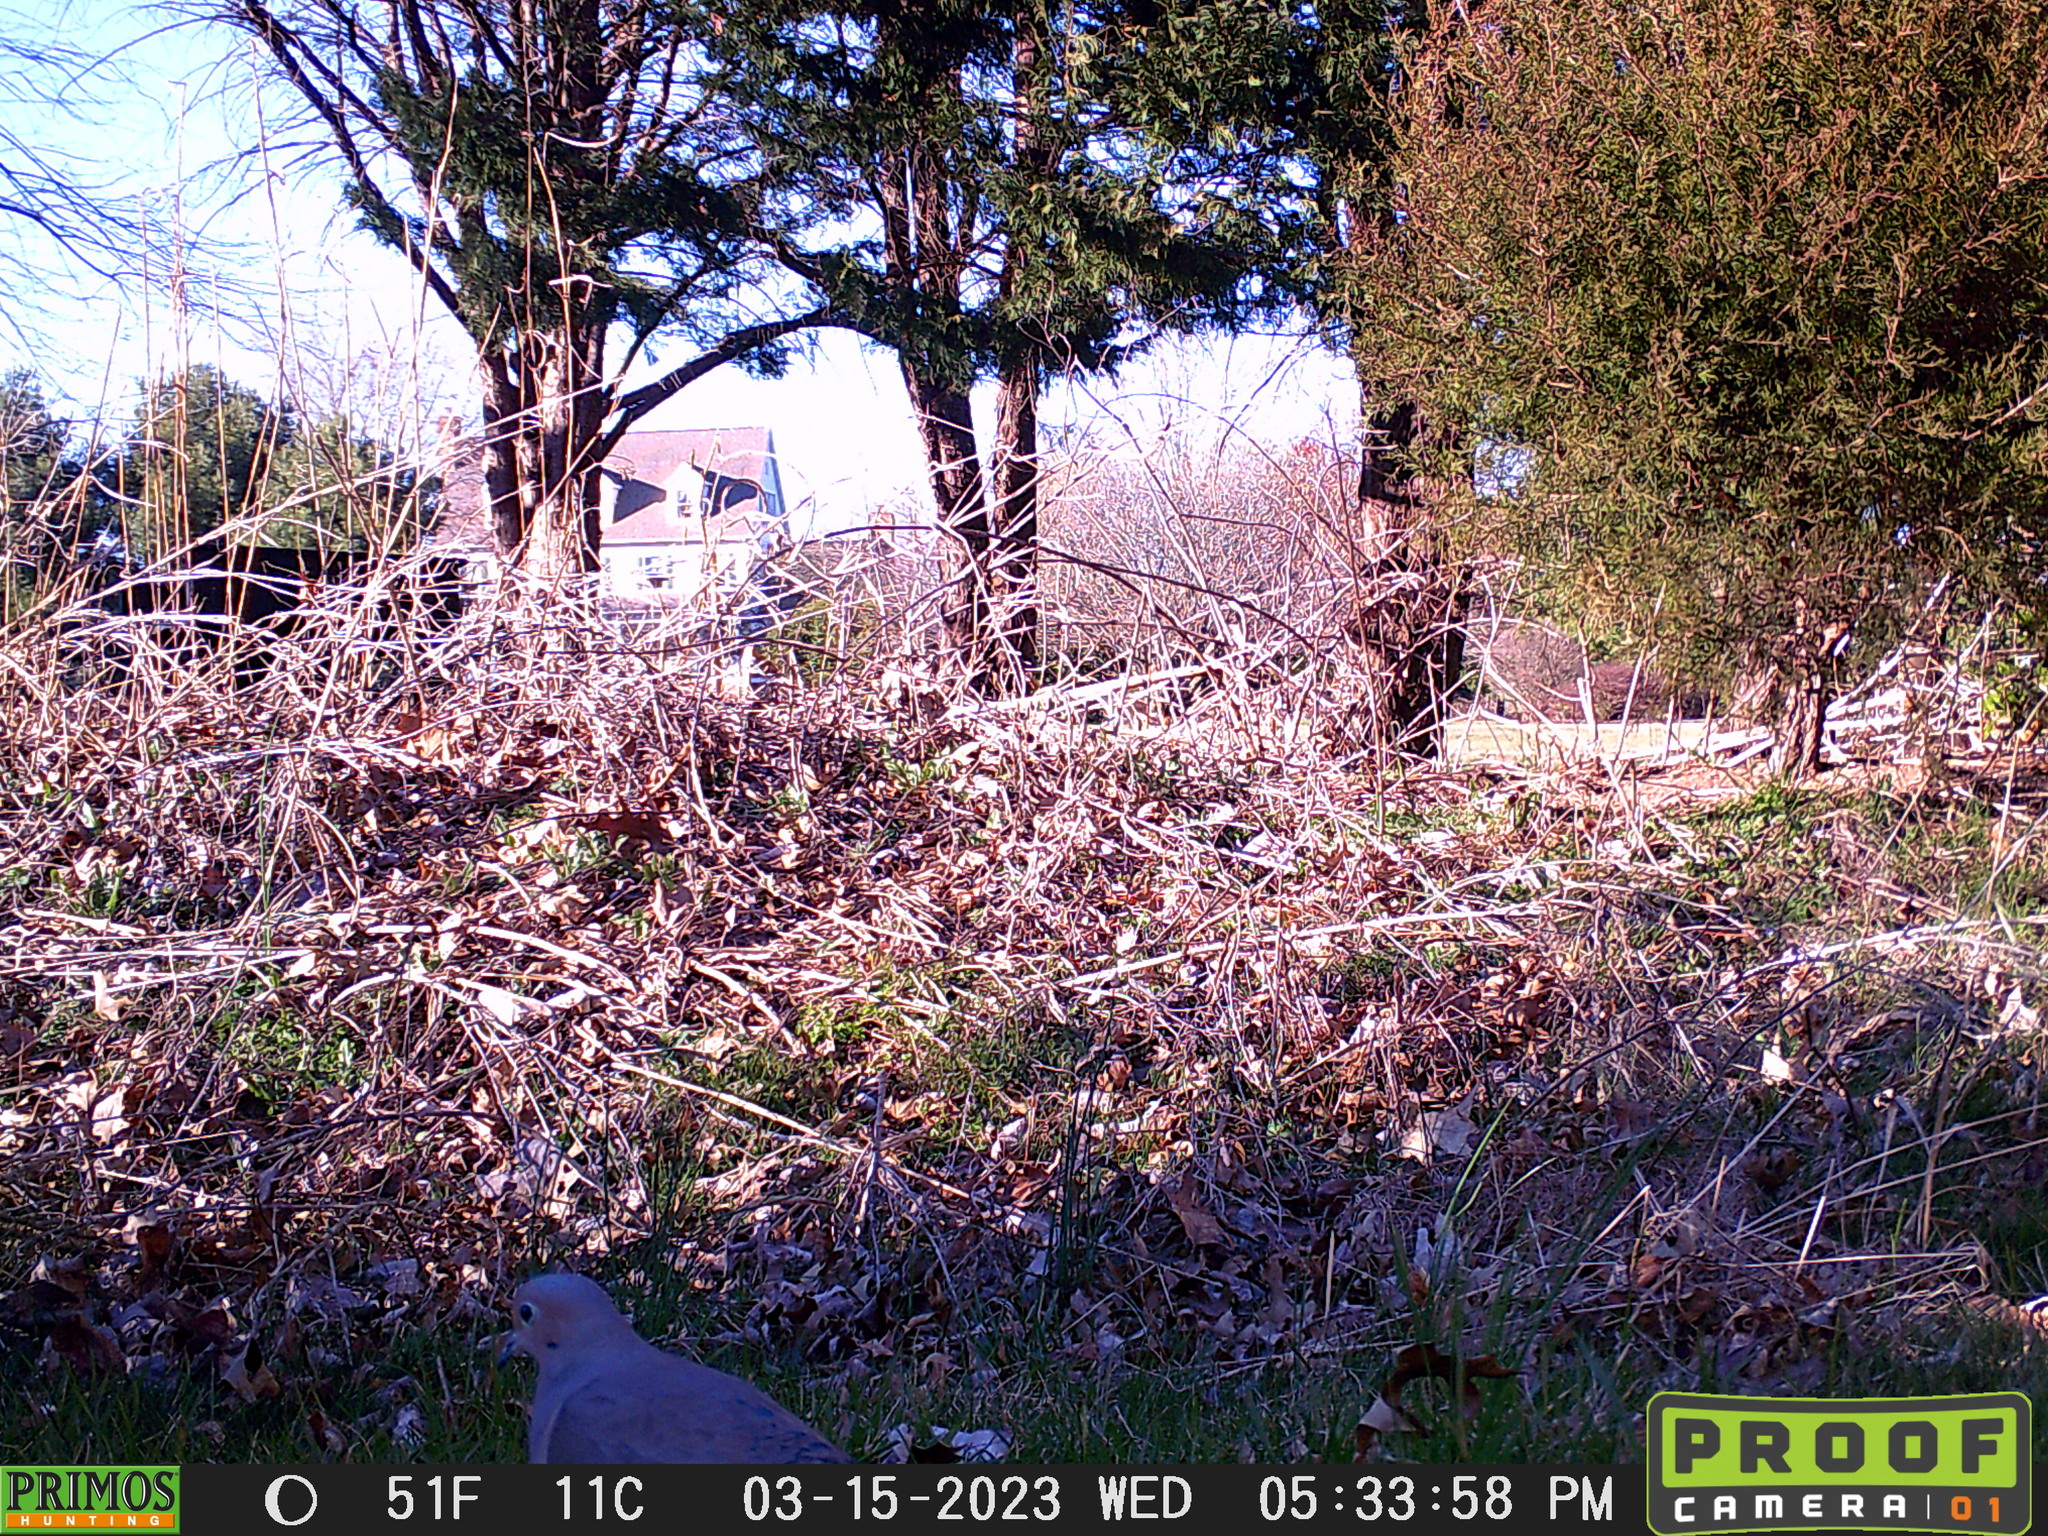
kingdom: Animalia
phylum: Chordata
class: Aves
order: Columbiformes
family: Columbidae
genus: Zenaida
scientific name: Zenaida macroura
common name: Mourning dove
